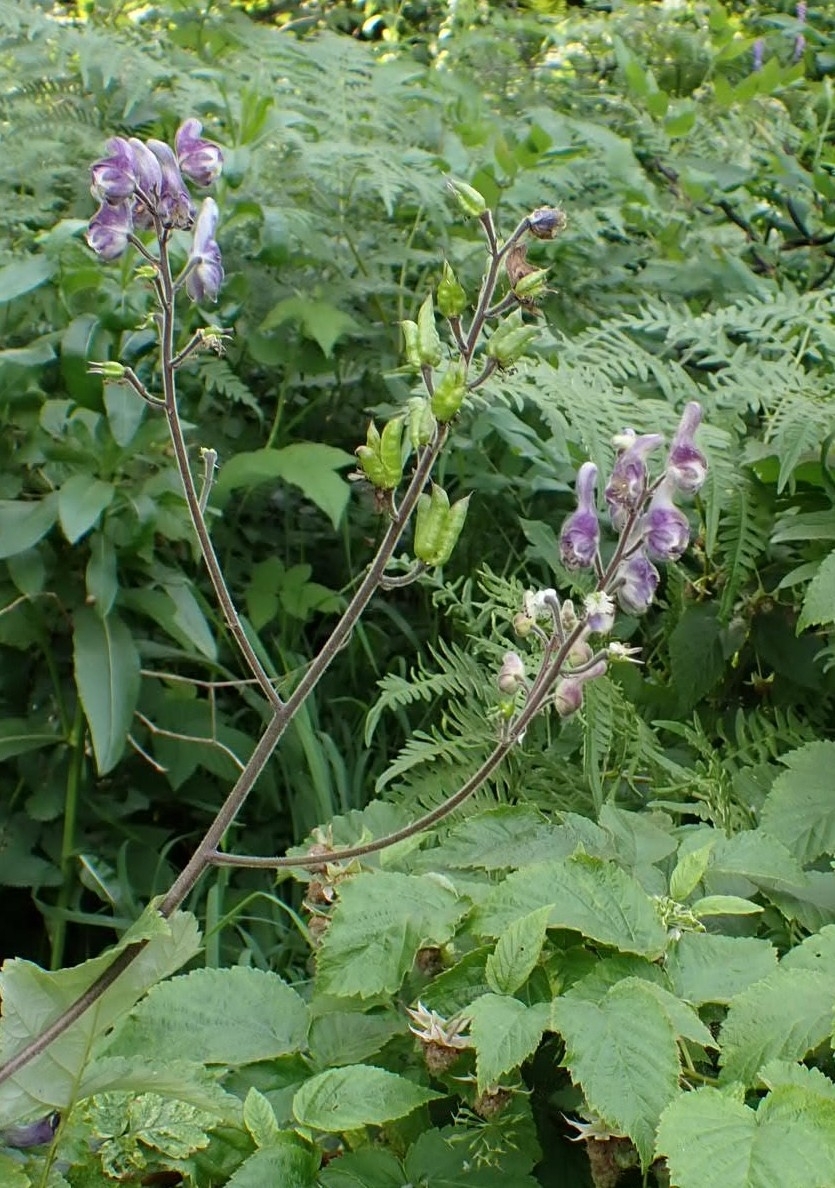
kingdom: Plantae
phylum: Tracheophyta
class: Magnoliopsida
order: Ranunculales
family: Ranunculaceae
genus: Aconitum
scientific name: Aconitum septentrionale
